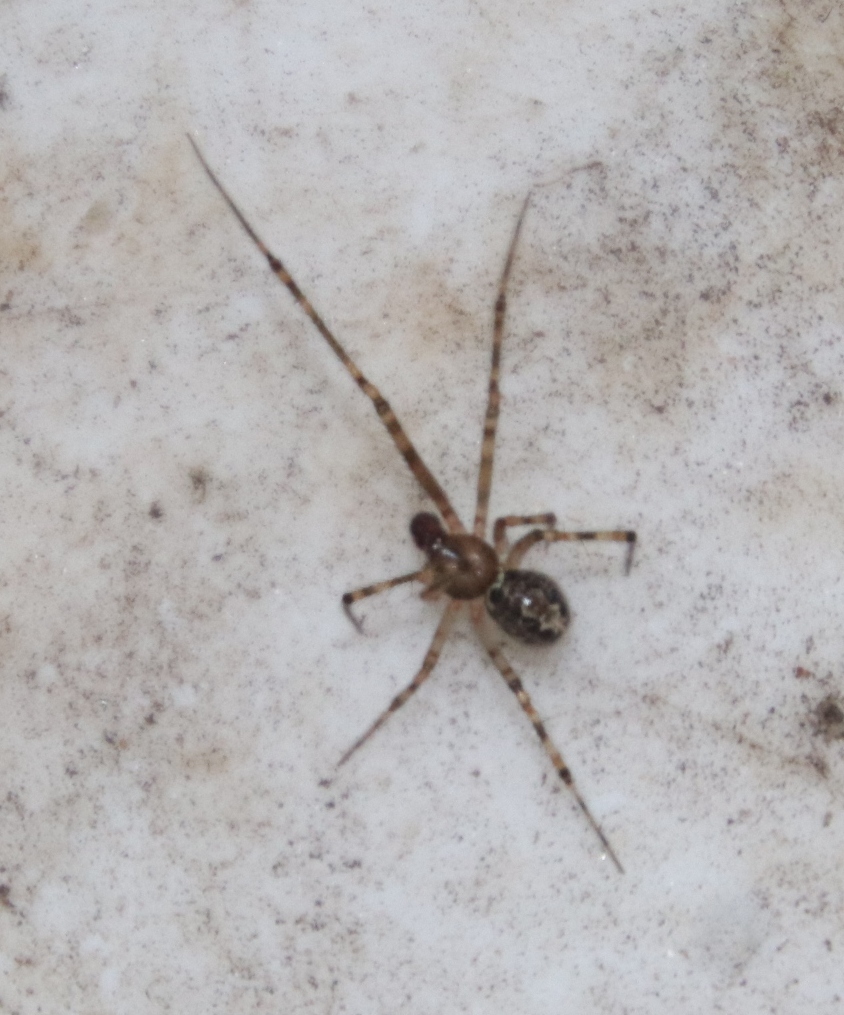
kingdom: Animalia
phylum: Arthropoda
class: Arachnida
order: Araneae
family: Theridiidae
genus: Latrodectus
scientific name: Latrodectus geometricus
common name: Brown widow spider
